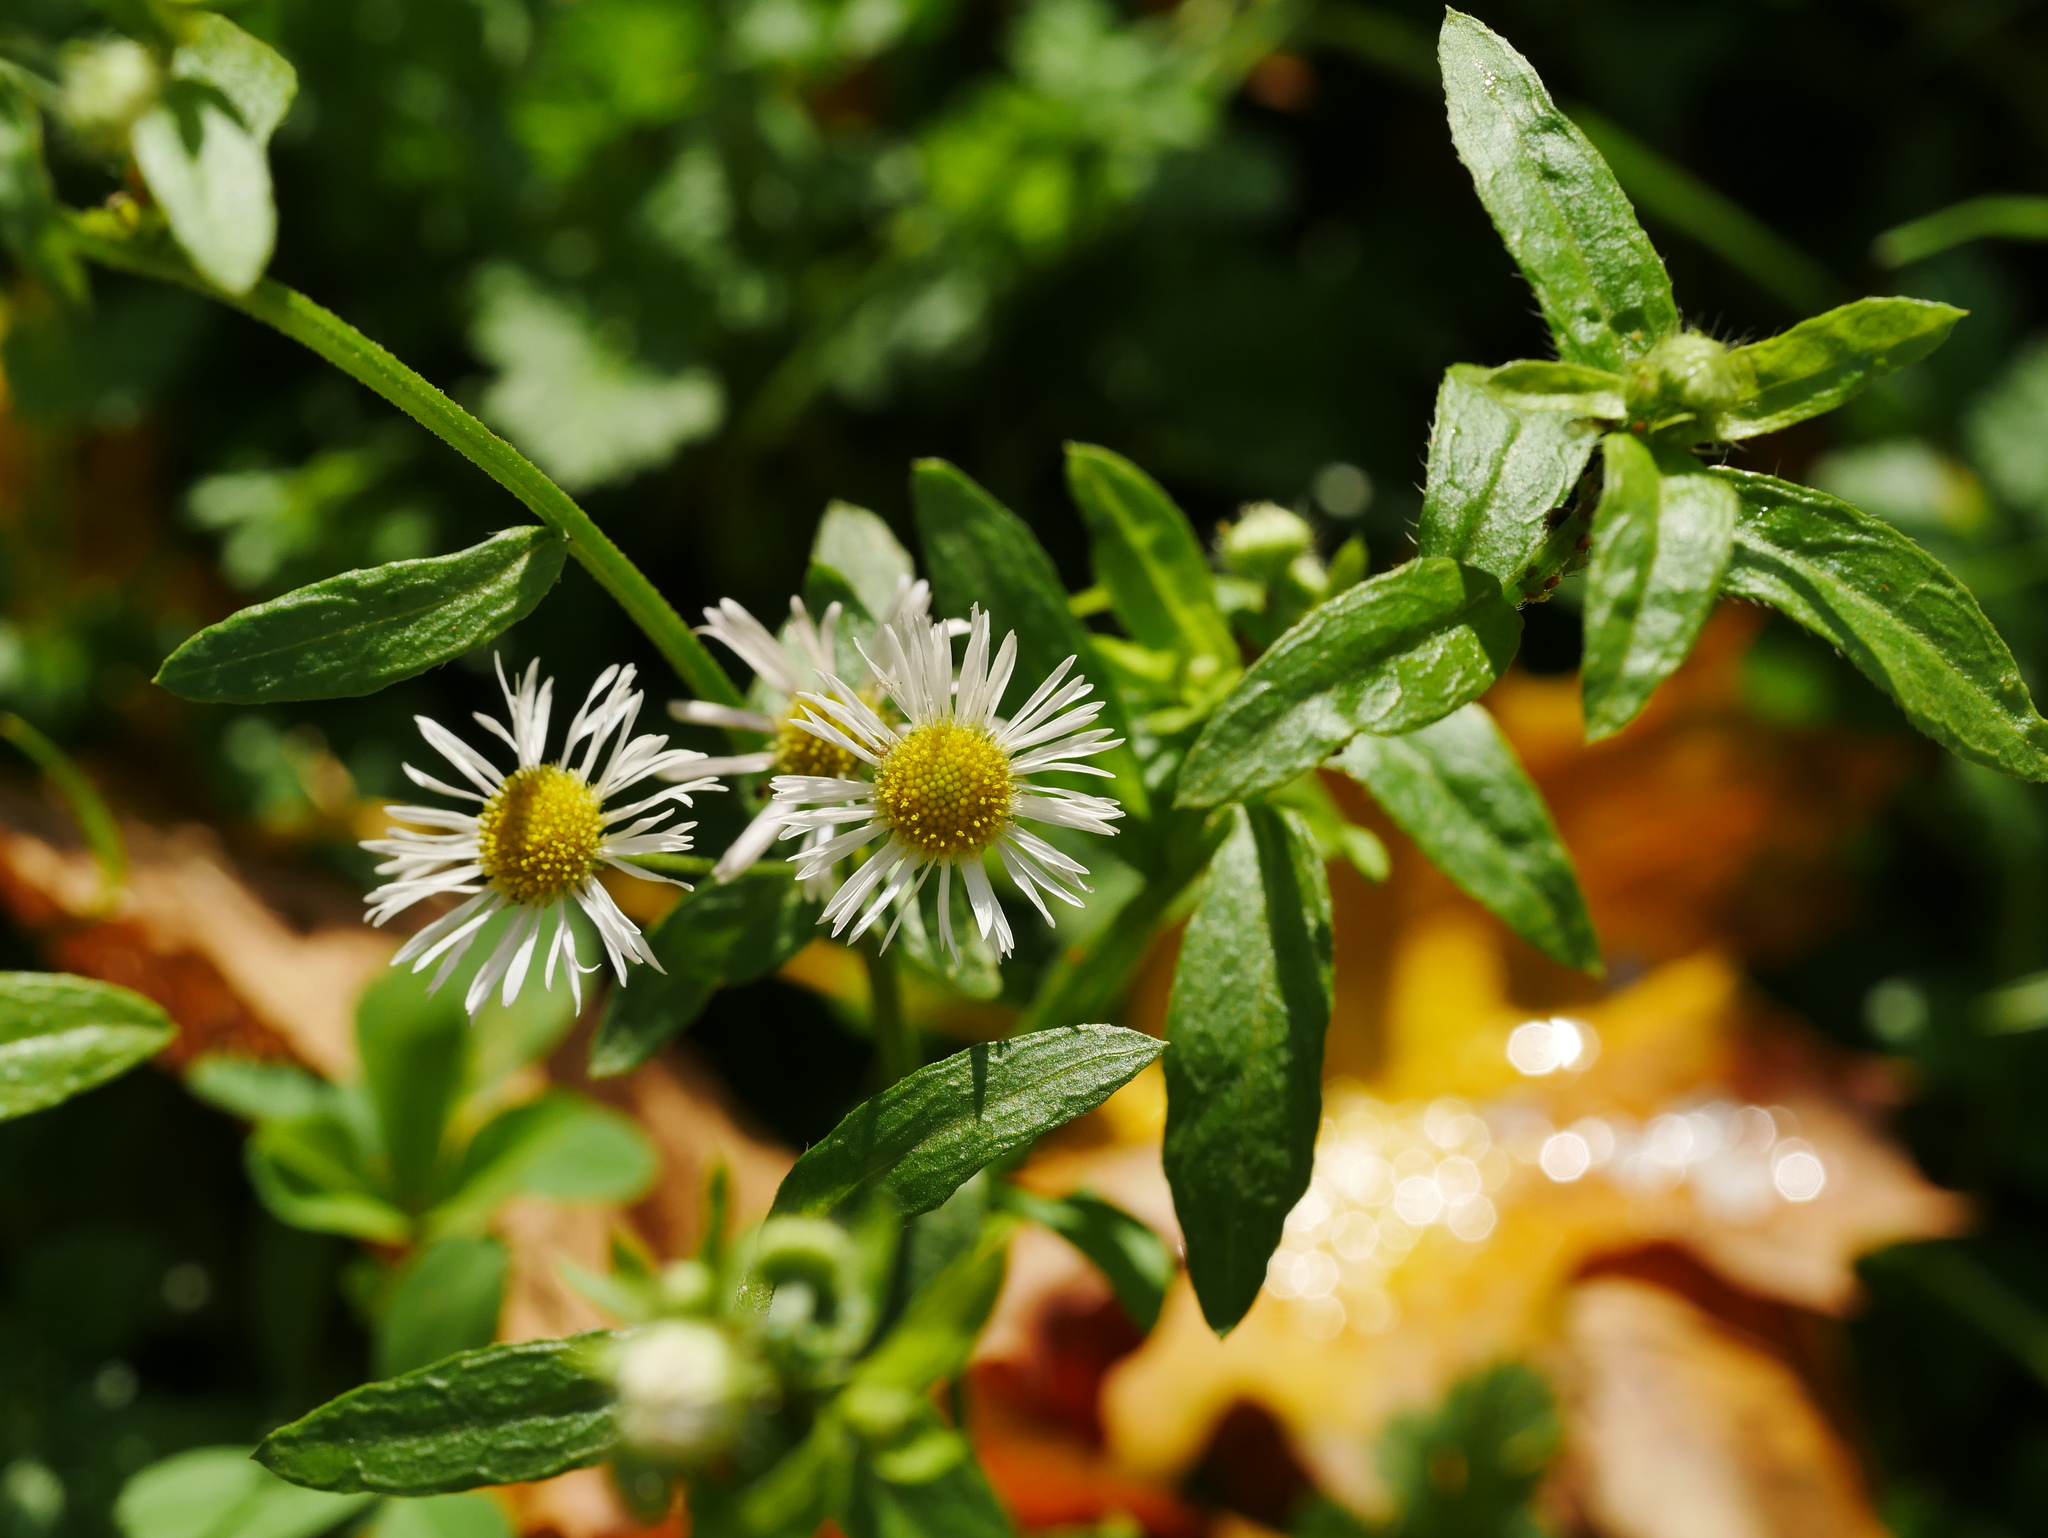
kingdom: Plantae
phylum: Tracheophyta
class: Magnoliopsida
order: Asterales
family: Asteraceae
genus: Erigeron
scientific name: Erigeron annuus
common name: Tall fleabane
